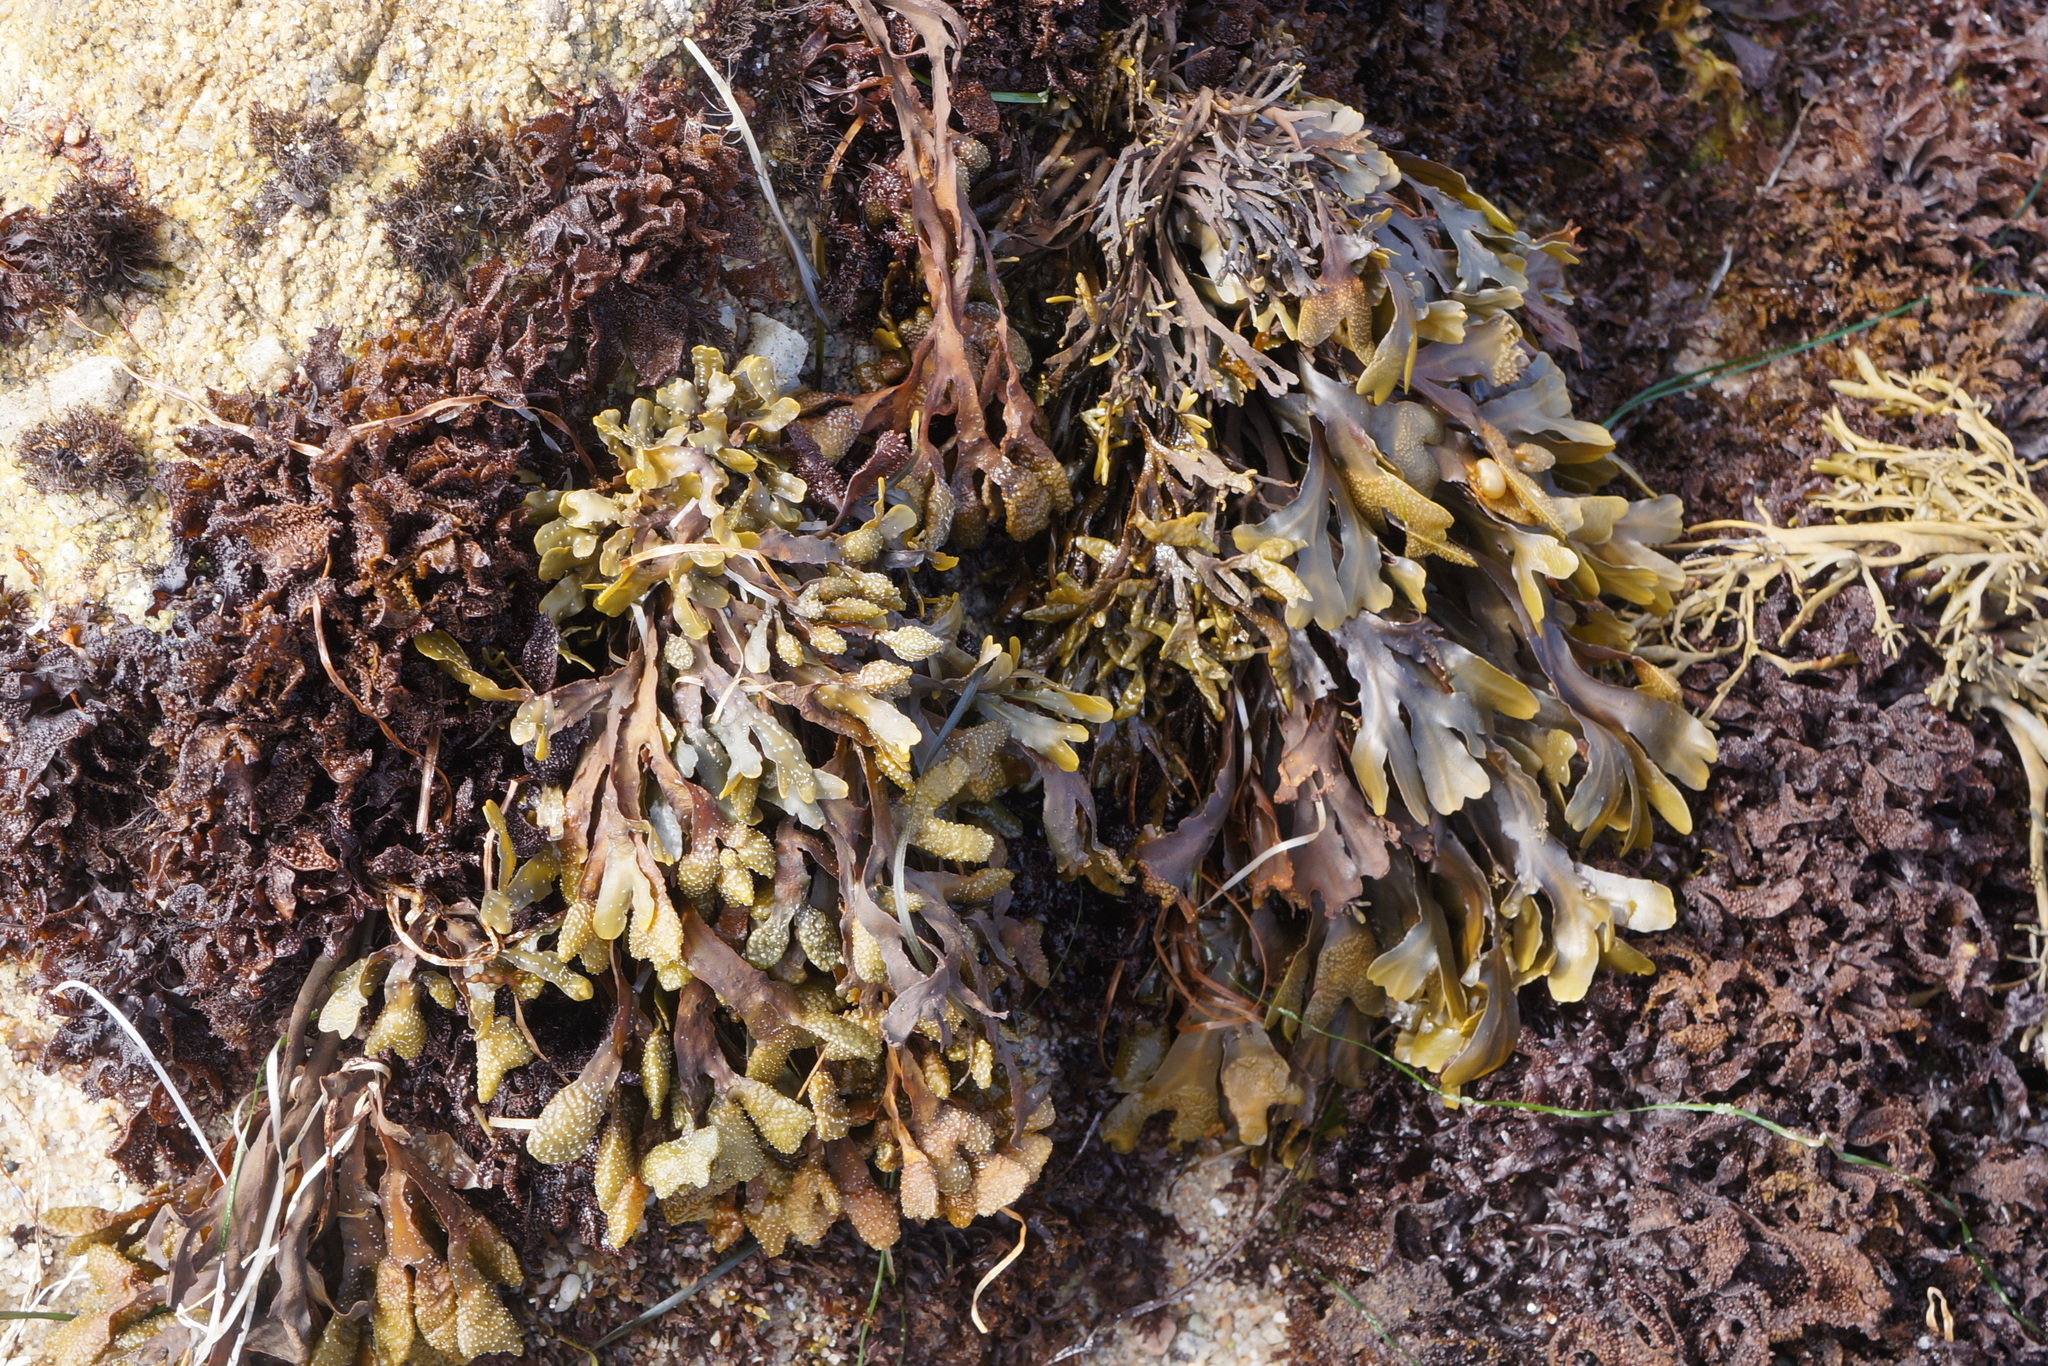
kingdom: Chromista
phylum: Ochrophyta
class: Phaeophyceae
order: Fucales
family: Fucaceae
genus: Fucus
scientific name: Fucus distichus
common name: Rockweed
